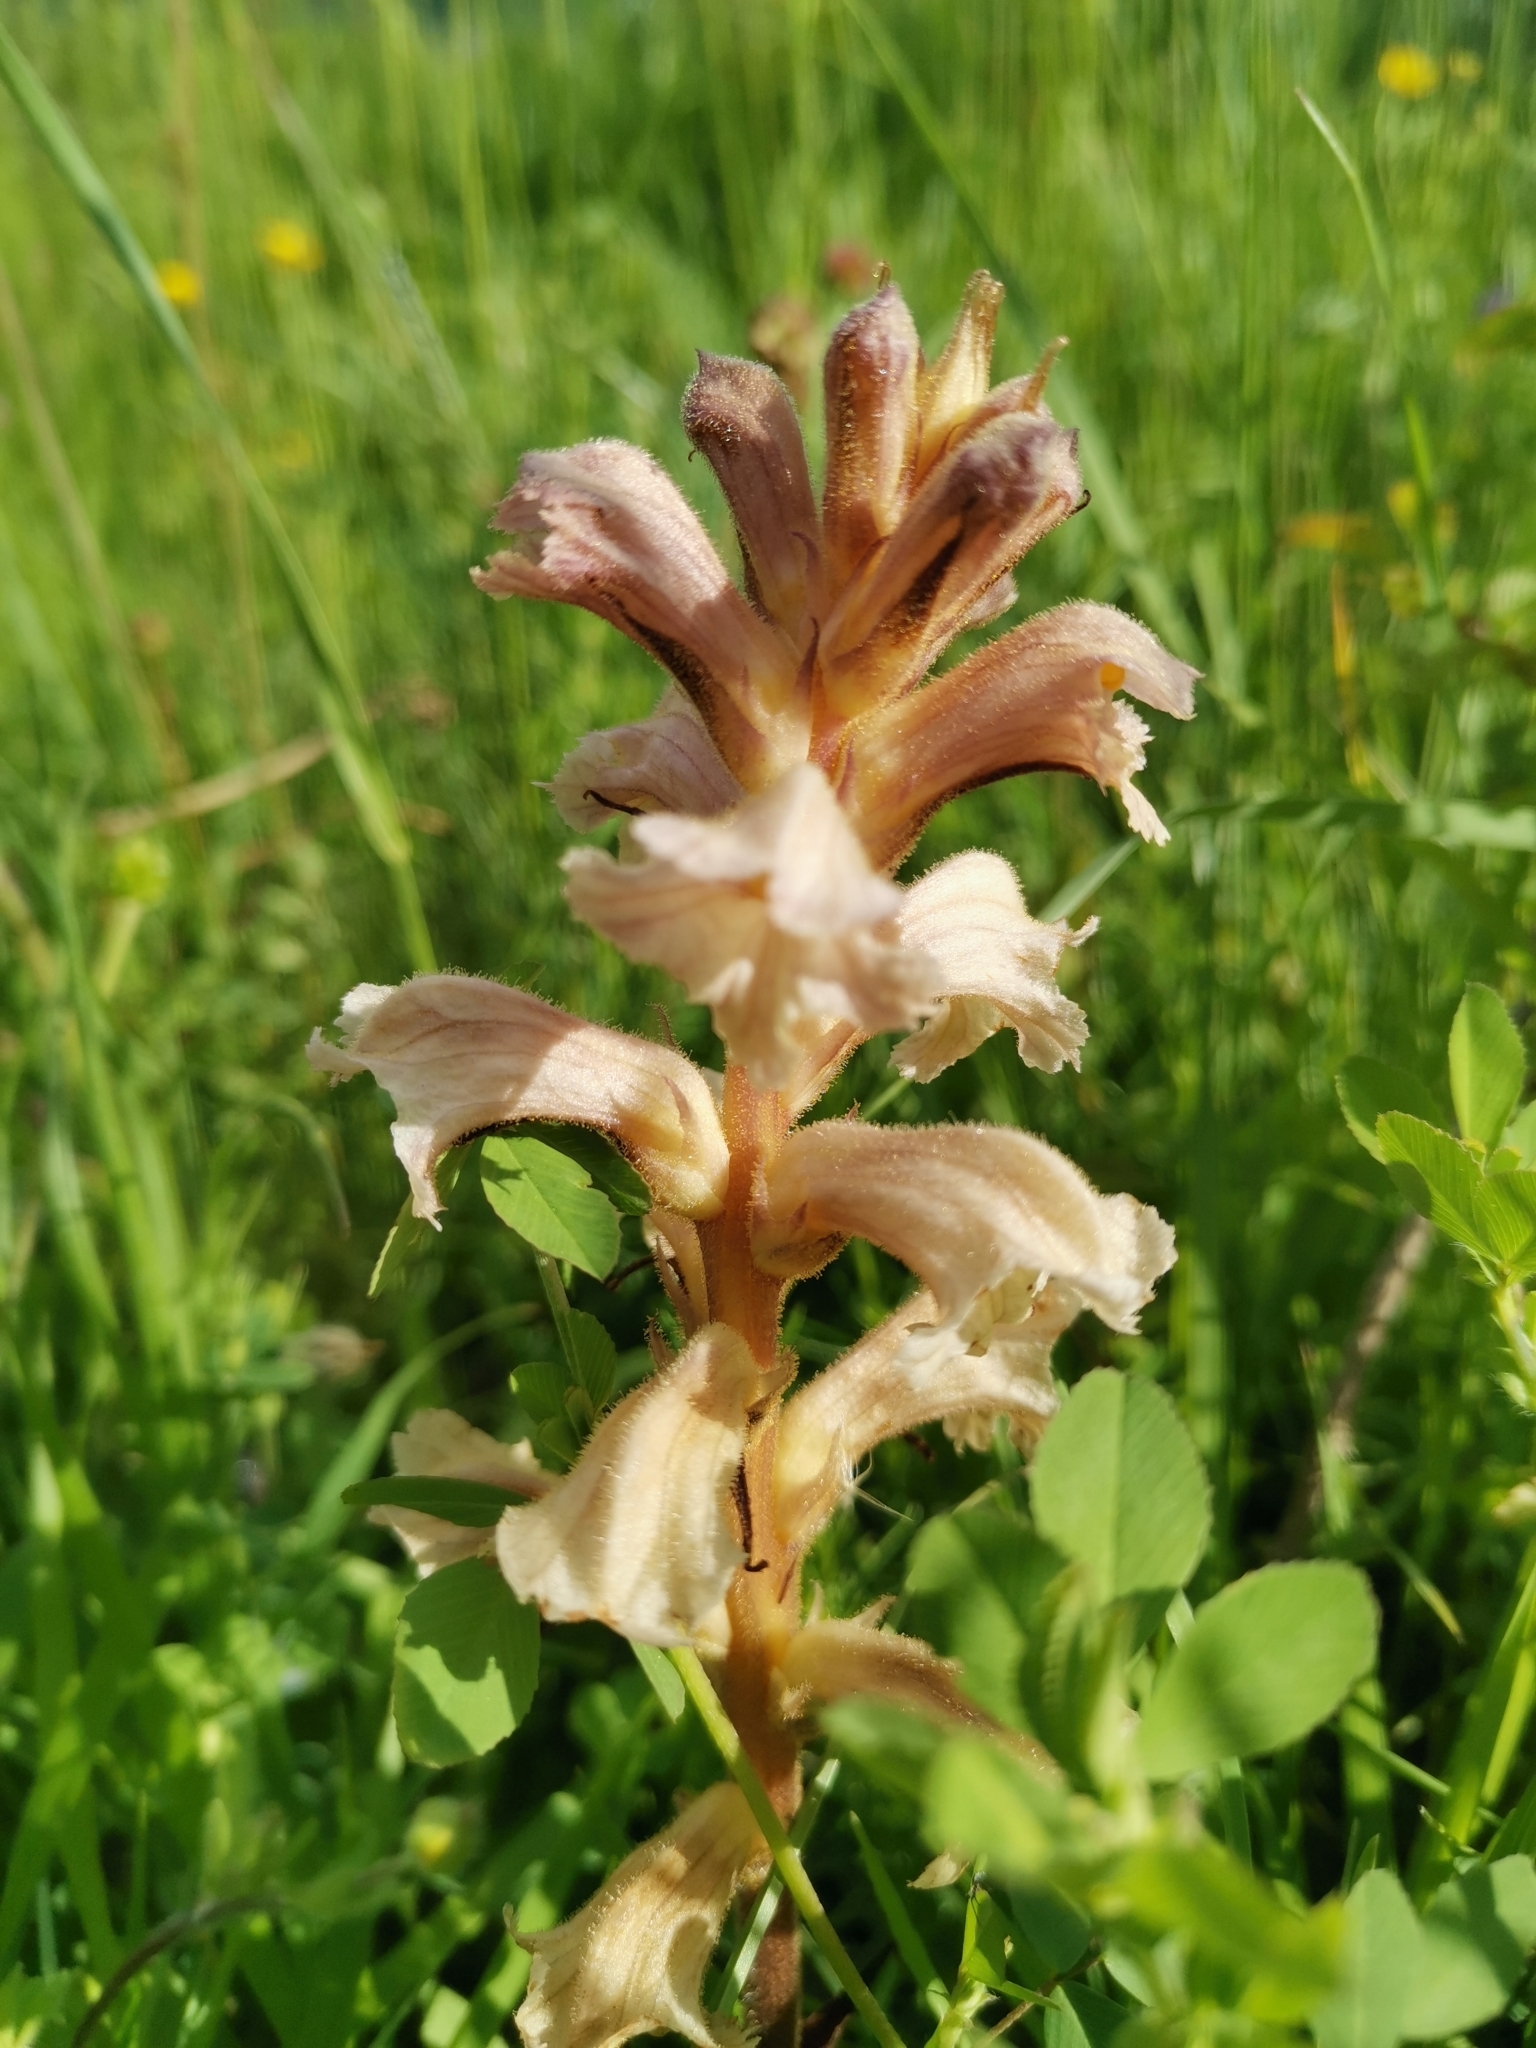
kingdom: Plantae
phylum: Tracheophyta
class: Magnoliopsida
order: Lamiales
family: Orobanchaceae
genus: Orobanche
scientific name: Orobanche lutea
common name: Yellow broomrape
